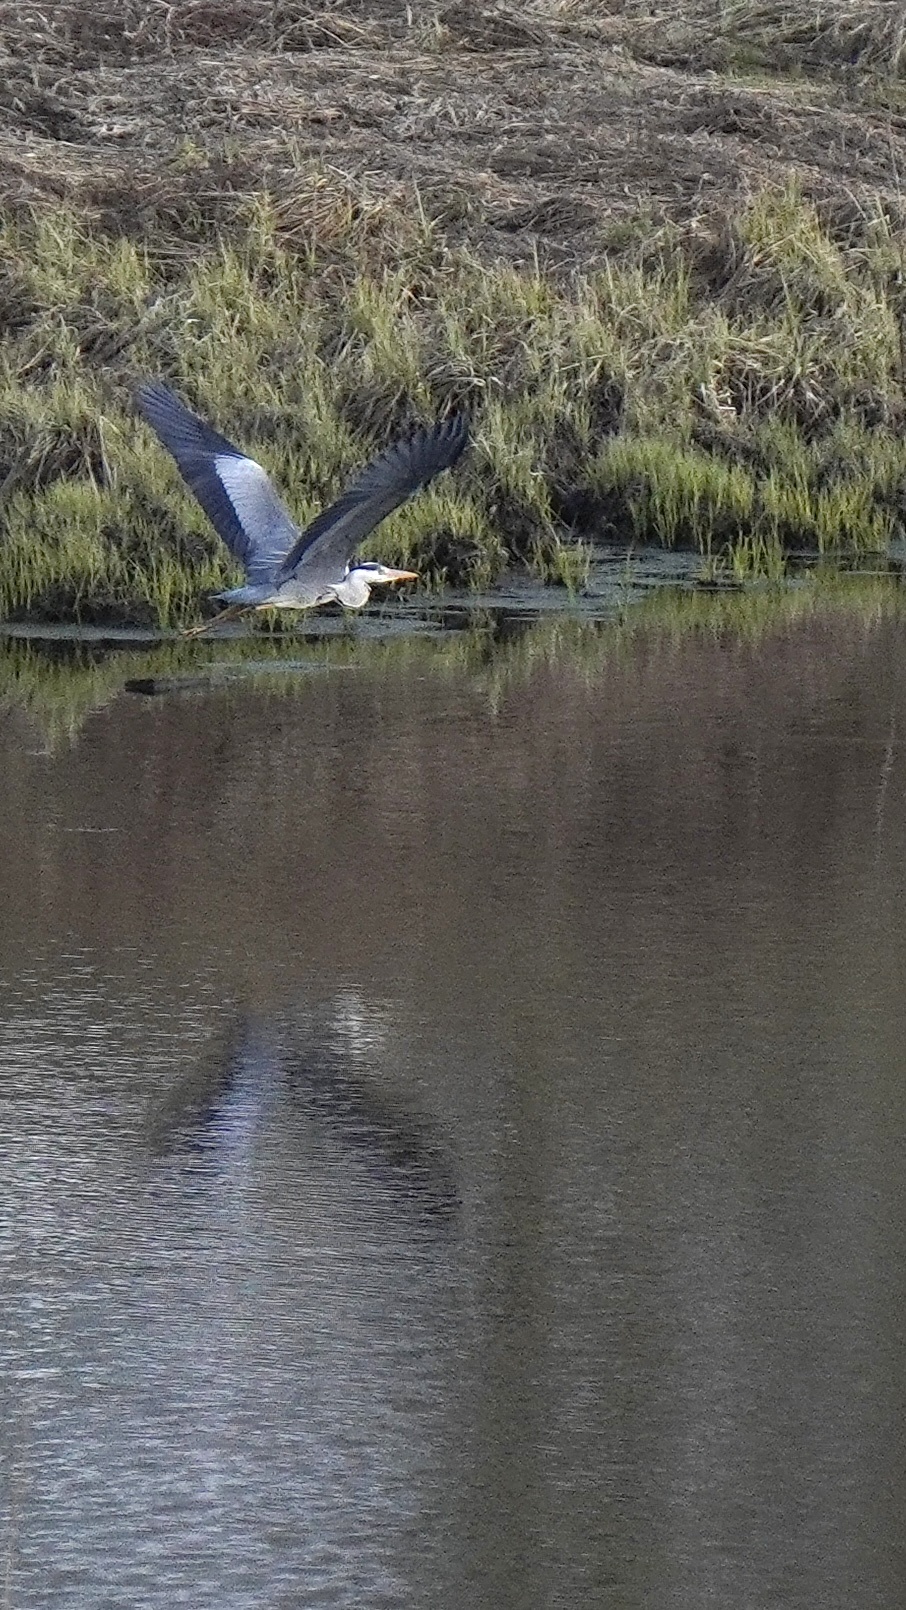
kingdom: Animalia
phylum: Chordata
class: Aves
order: Pelecaniformes
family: Ardeidae
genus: Ardea
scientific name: Ardea cinerea
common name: Grey heron
